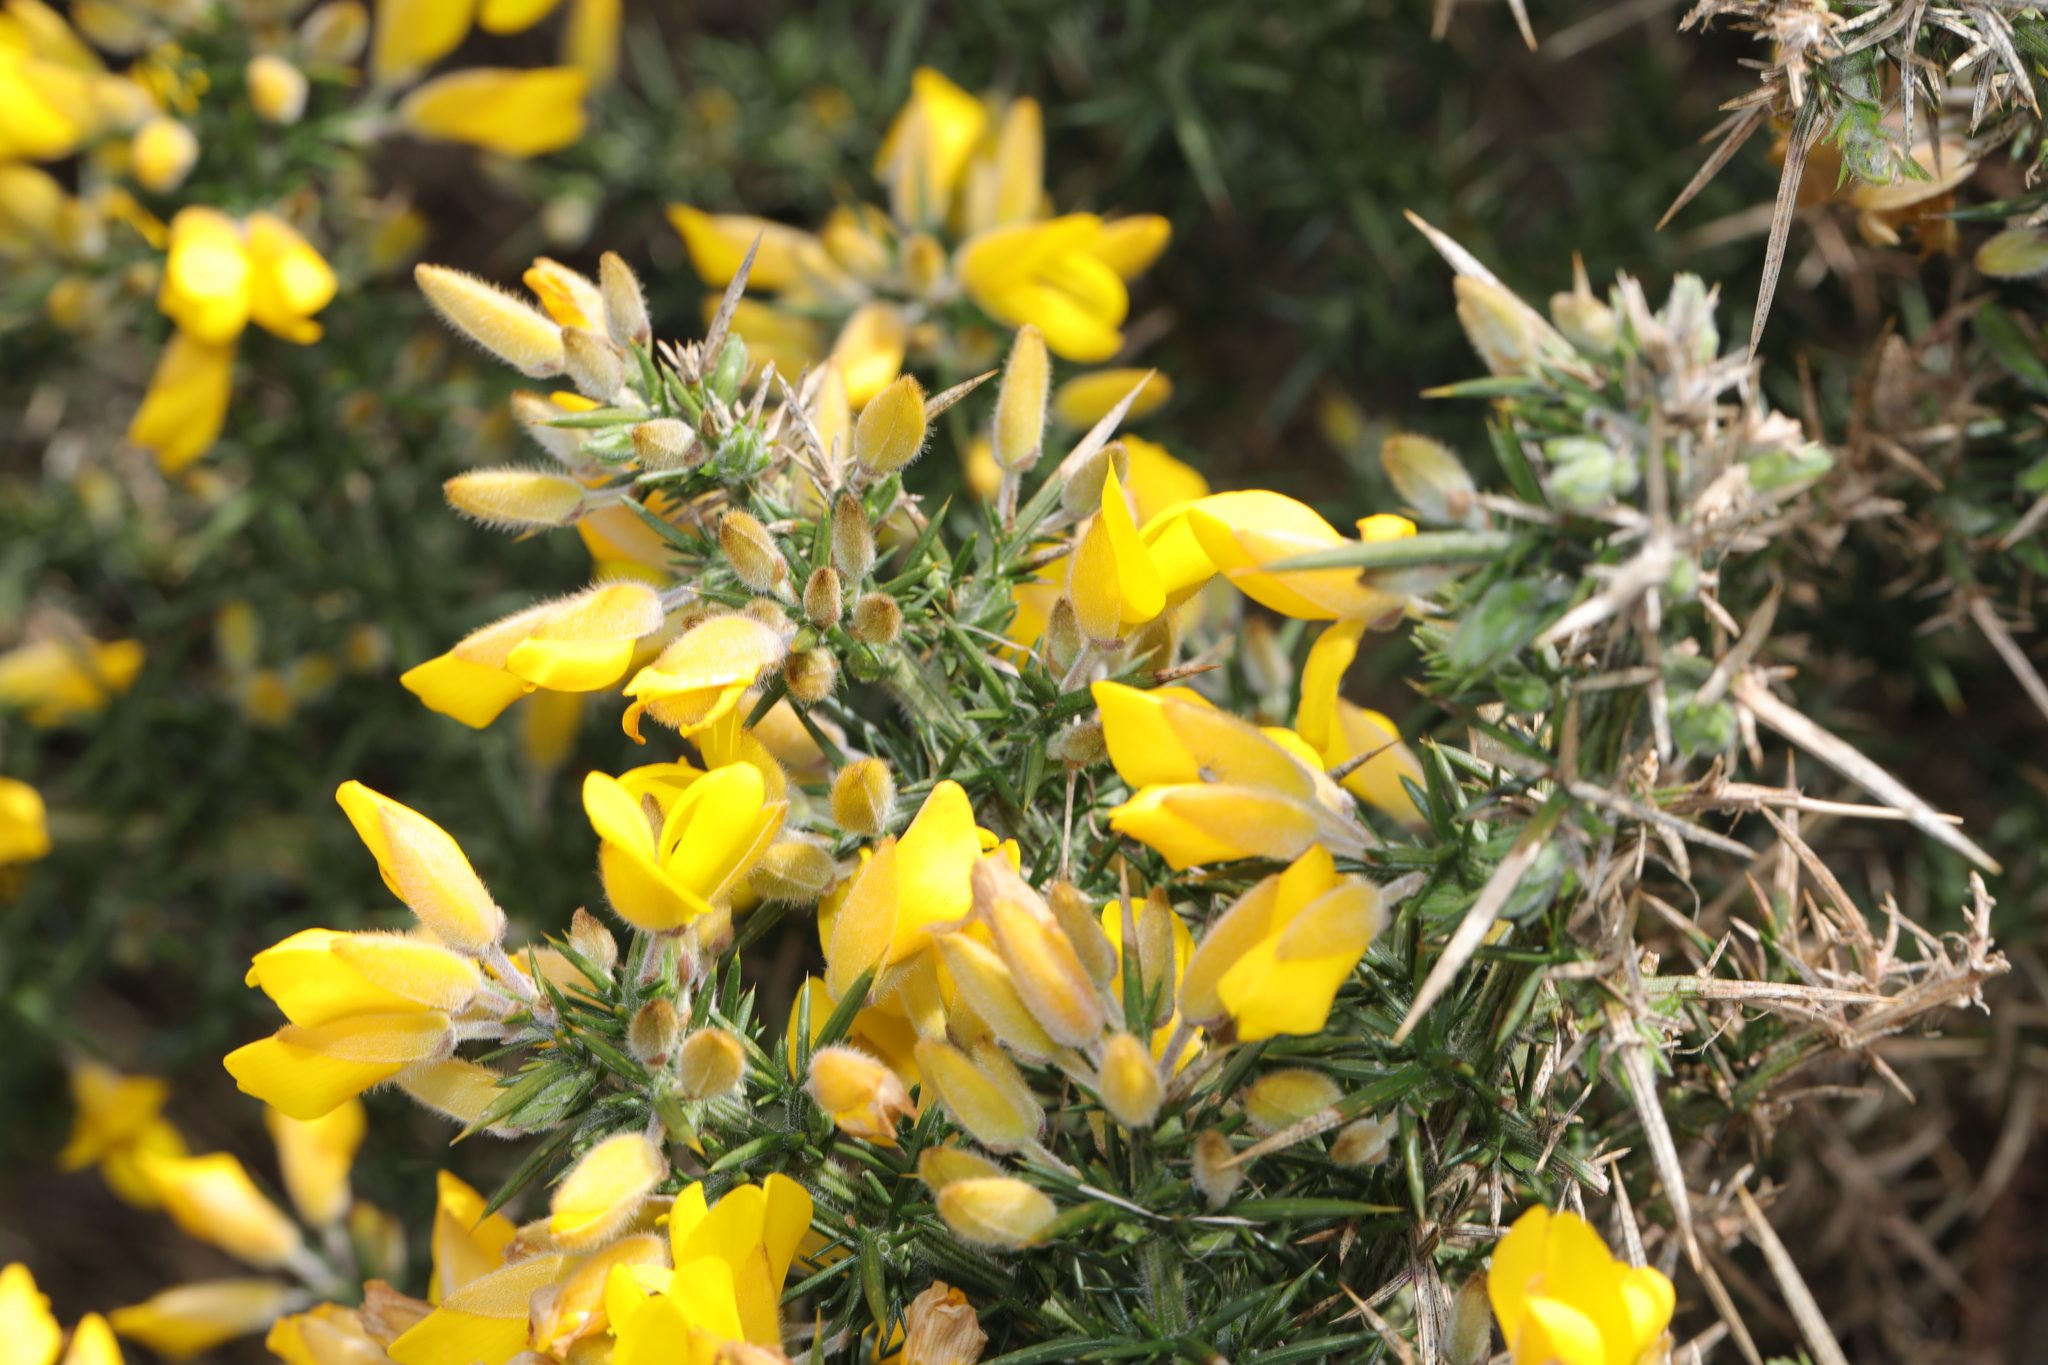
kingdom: Plantae
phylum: Tracheophyta
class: Magnoliopsida
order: Fabales
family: Fabaceae
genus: Ulex
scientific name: Ulex europaeus
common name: Common gorse
